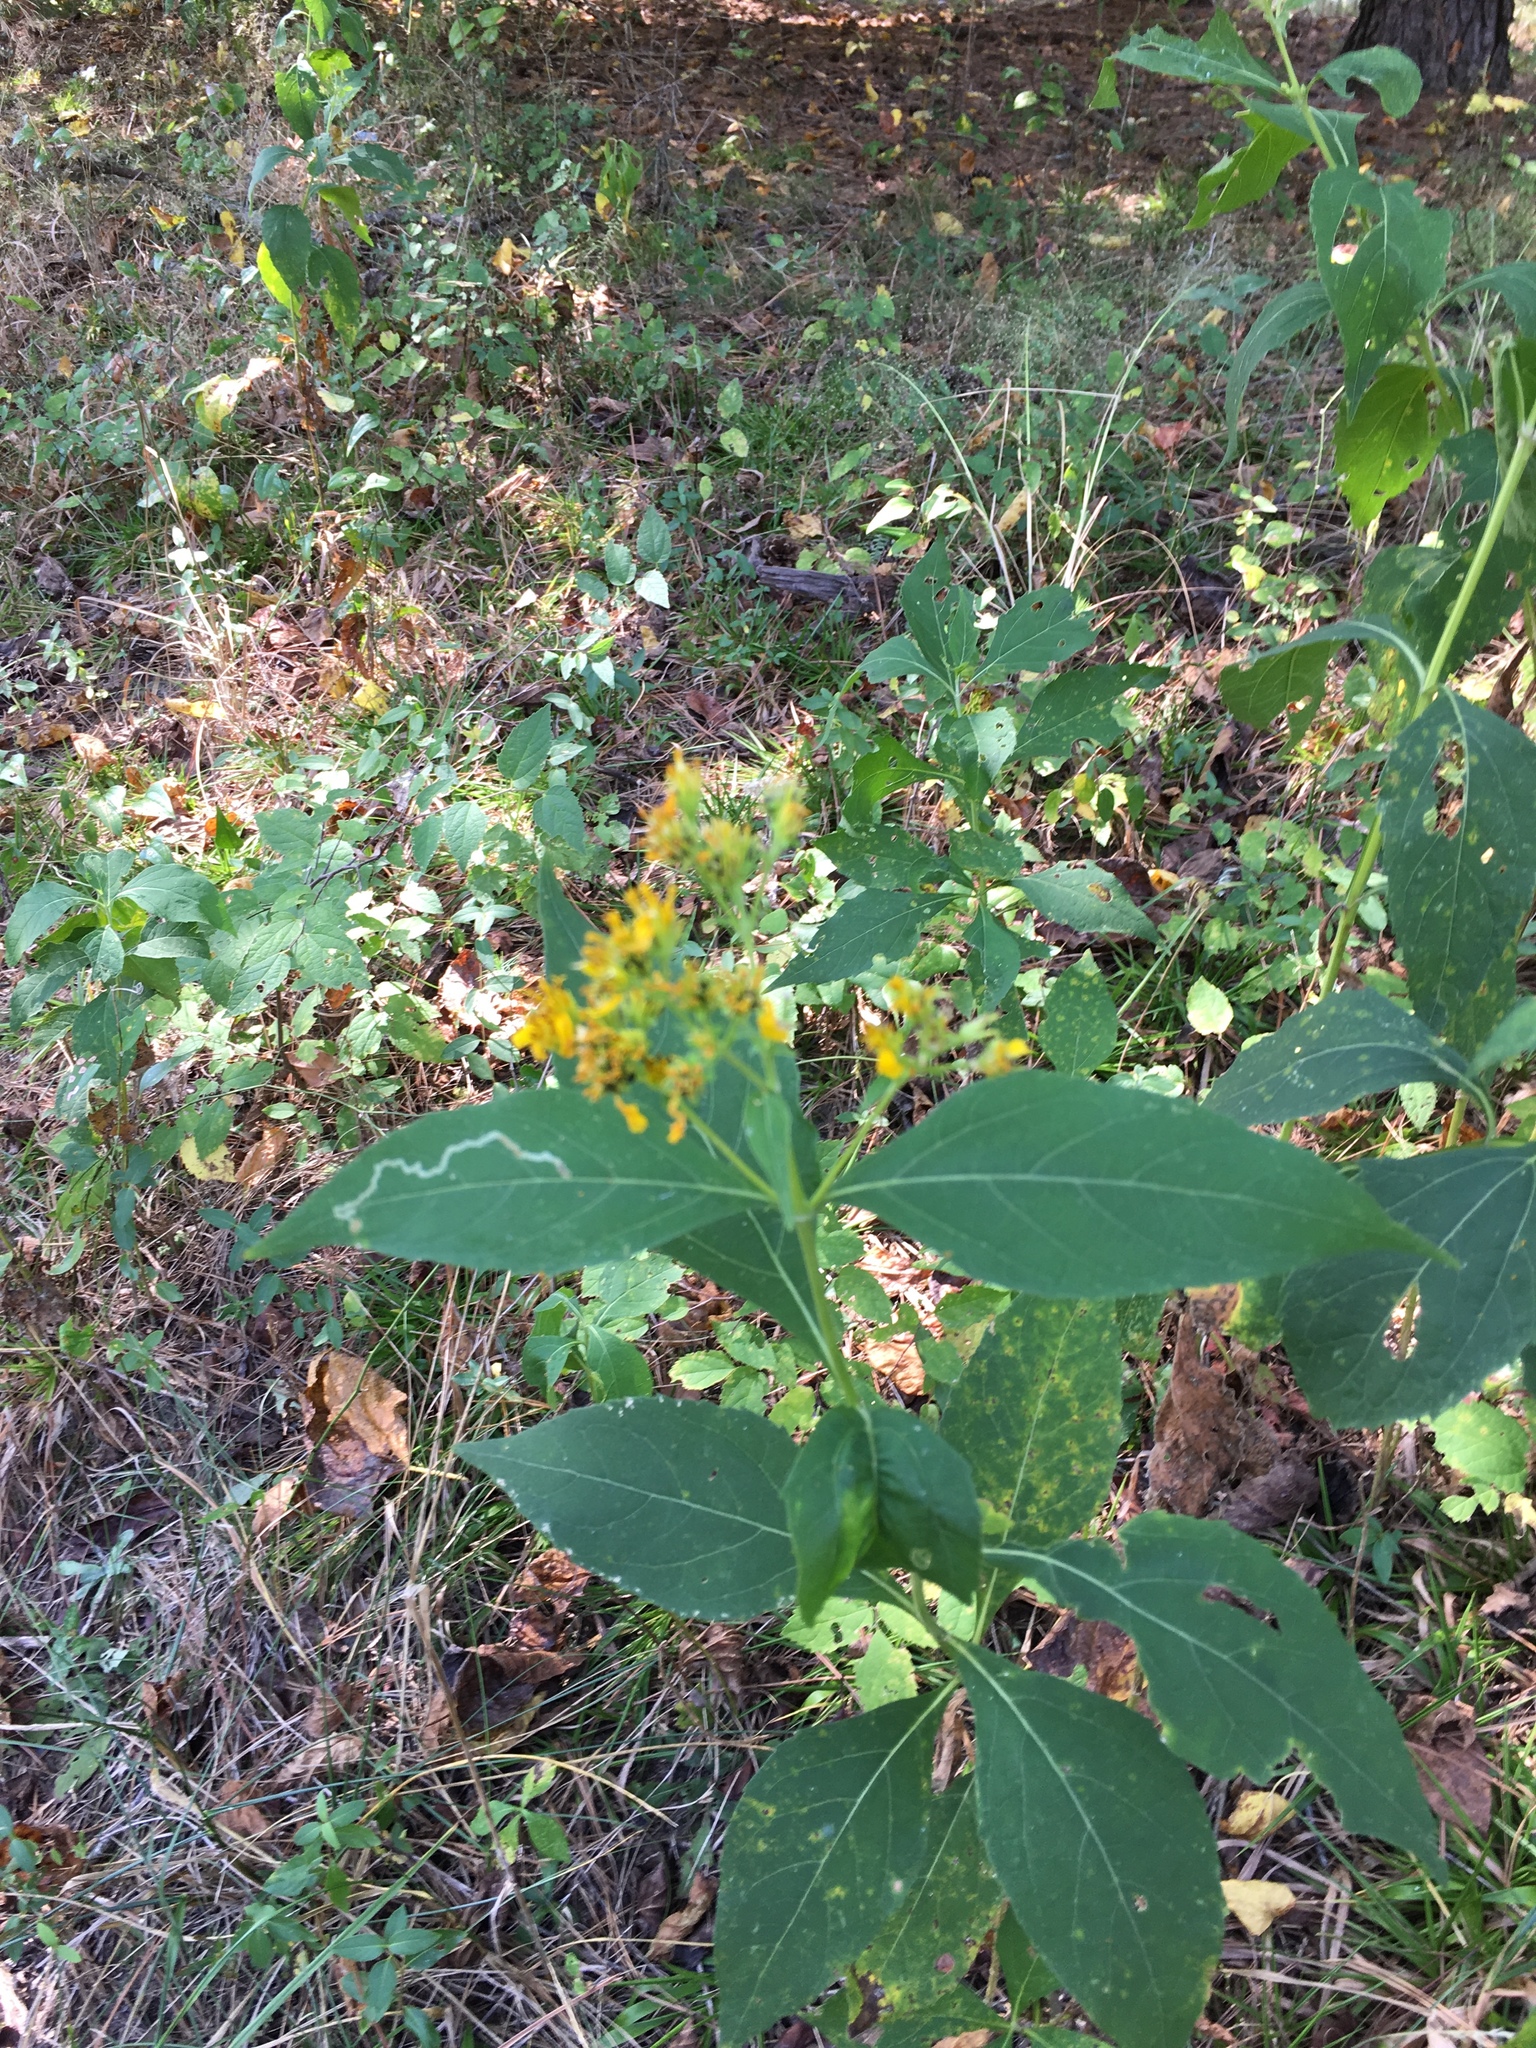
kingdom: Plantae
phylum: Tracheophyta
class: Magnoliopsida
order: Asterales
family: Asteraceae
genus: Verbesina
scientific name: Verbesina occidentalis
